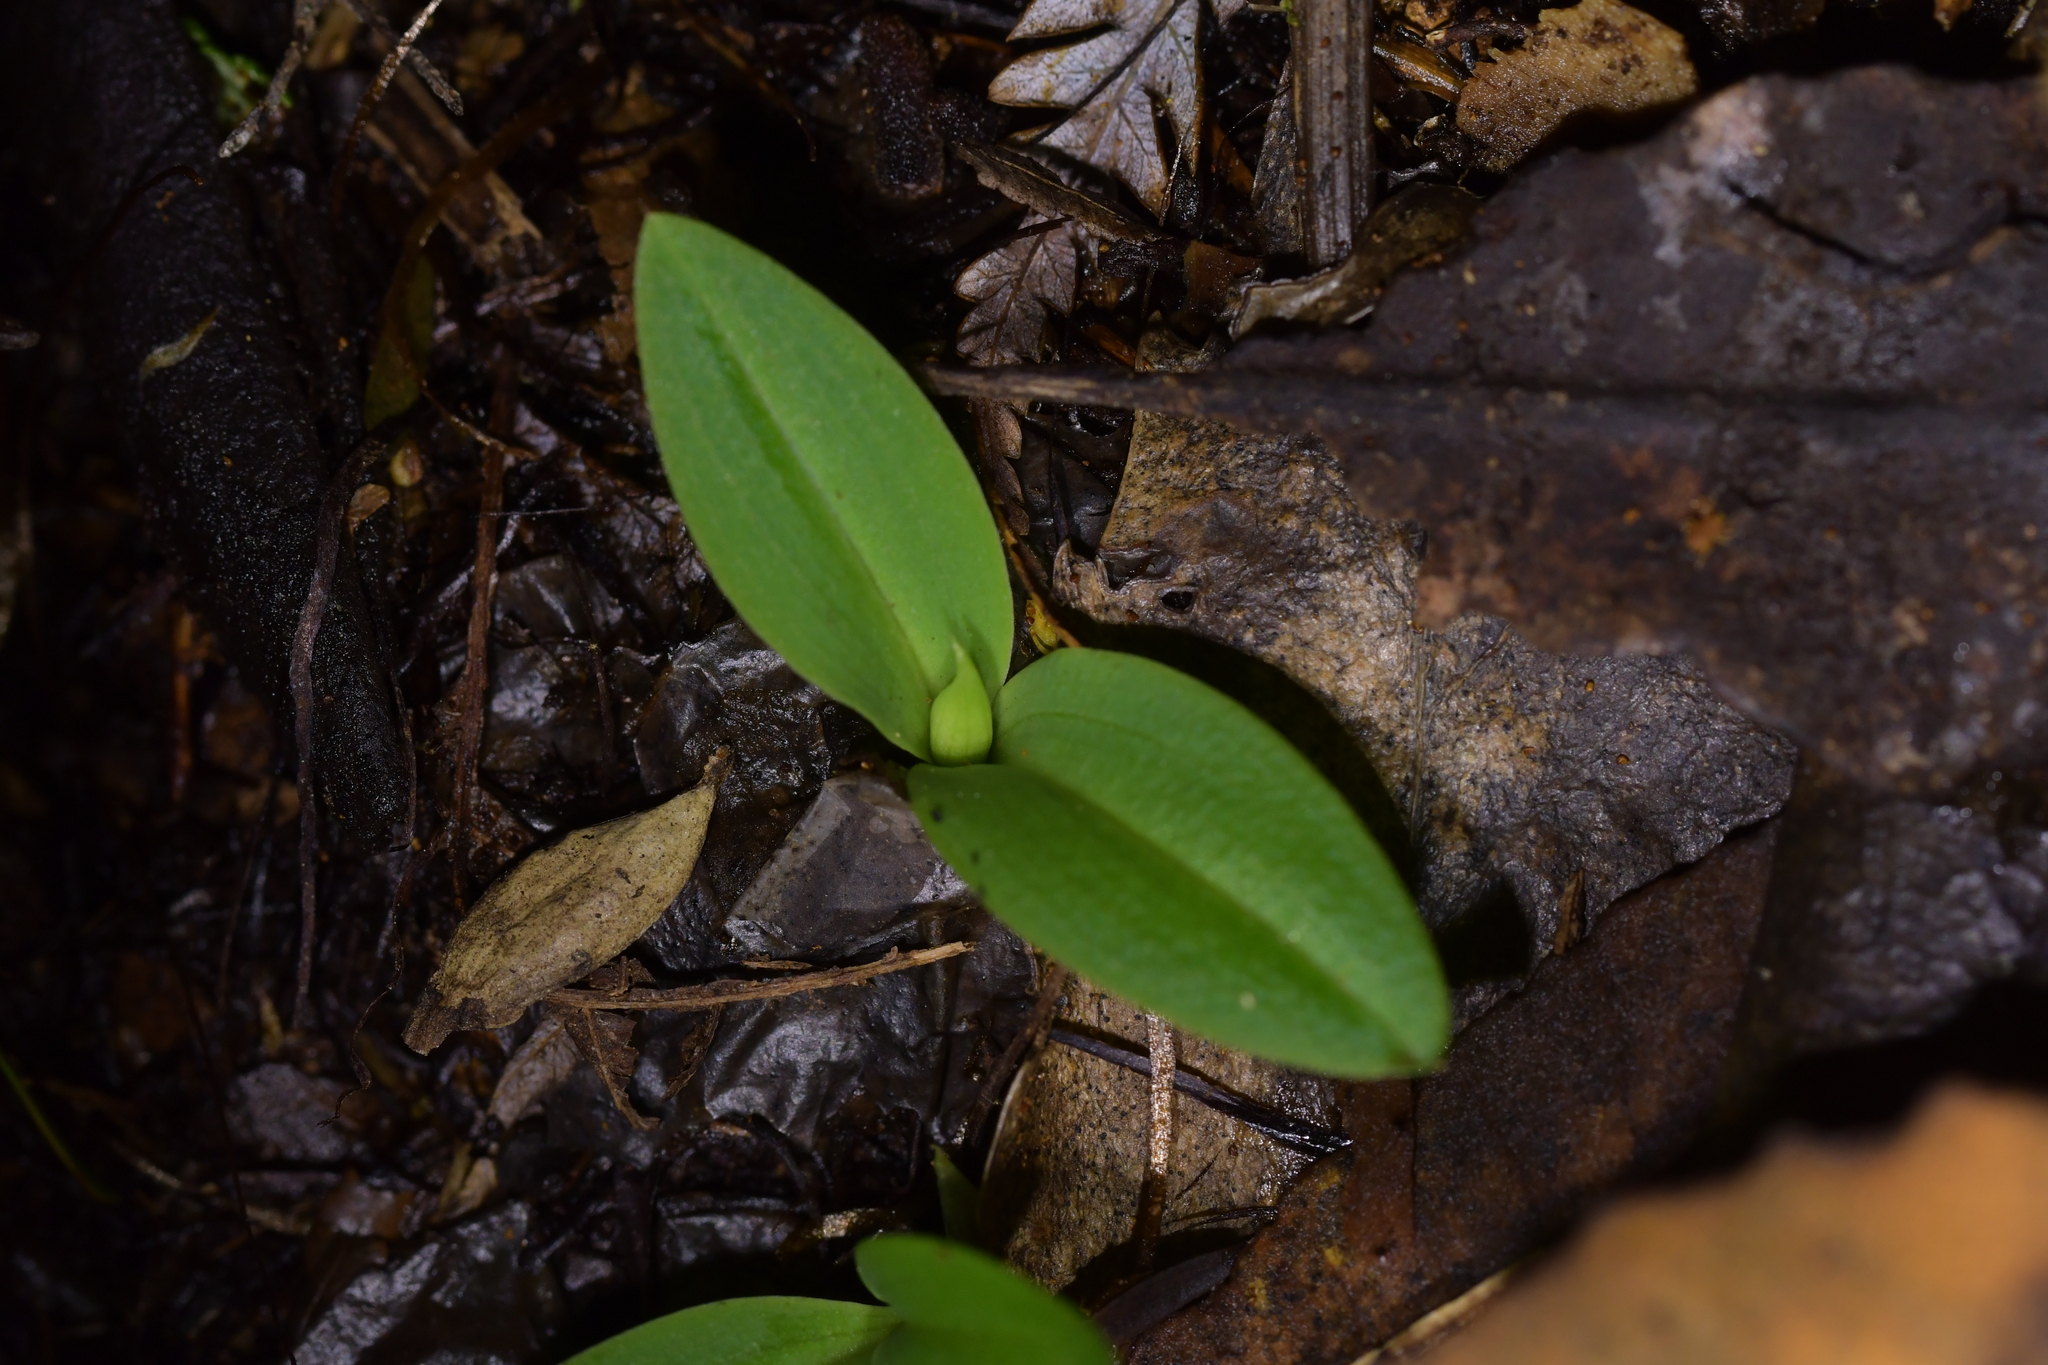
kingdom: Plantae
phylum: Tracheophyta
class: Liliopsida
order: Asparagales
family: Orchidaceae
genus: Chiloglottis
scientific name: Chiloglottis cornuta
